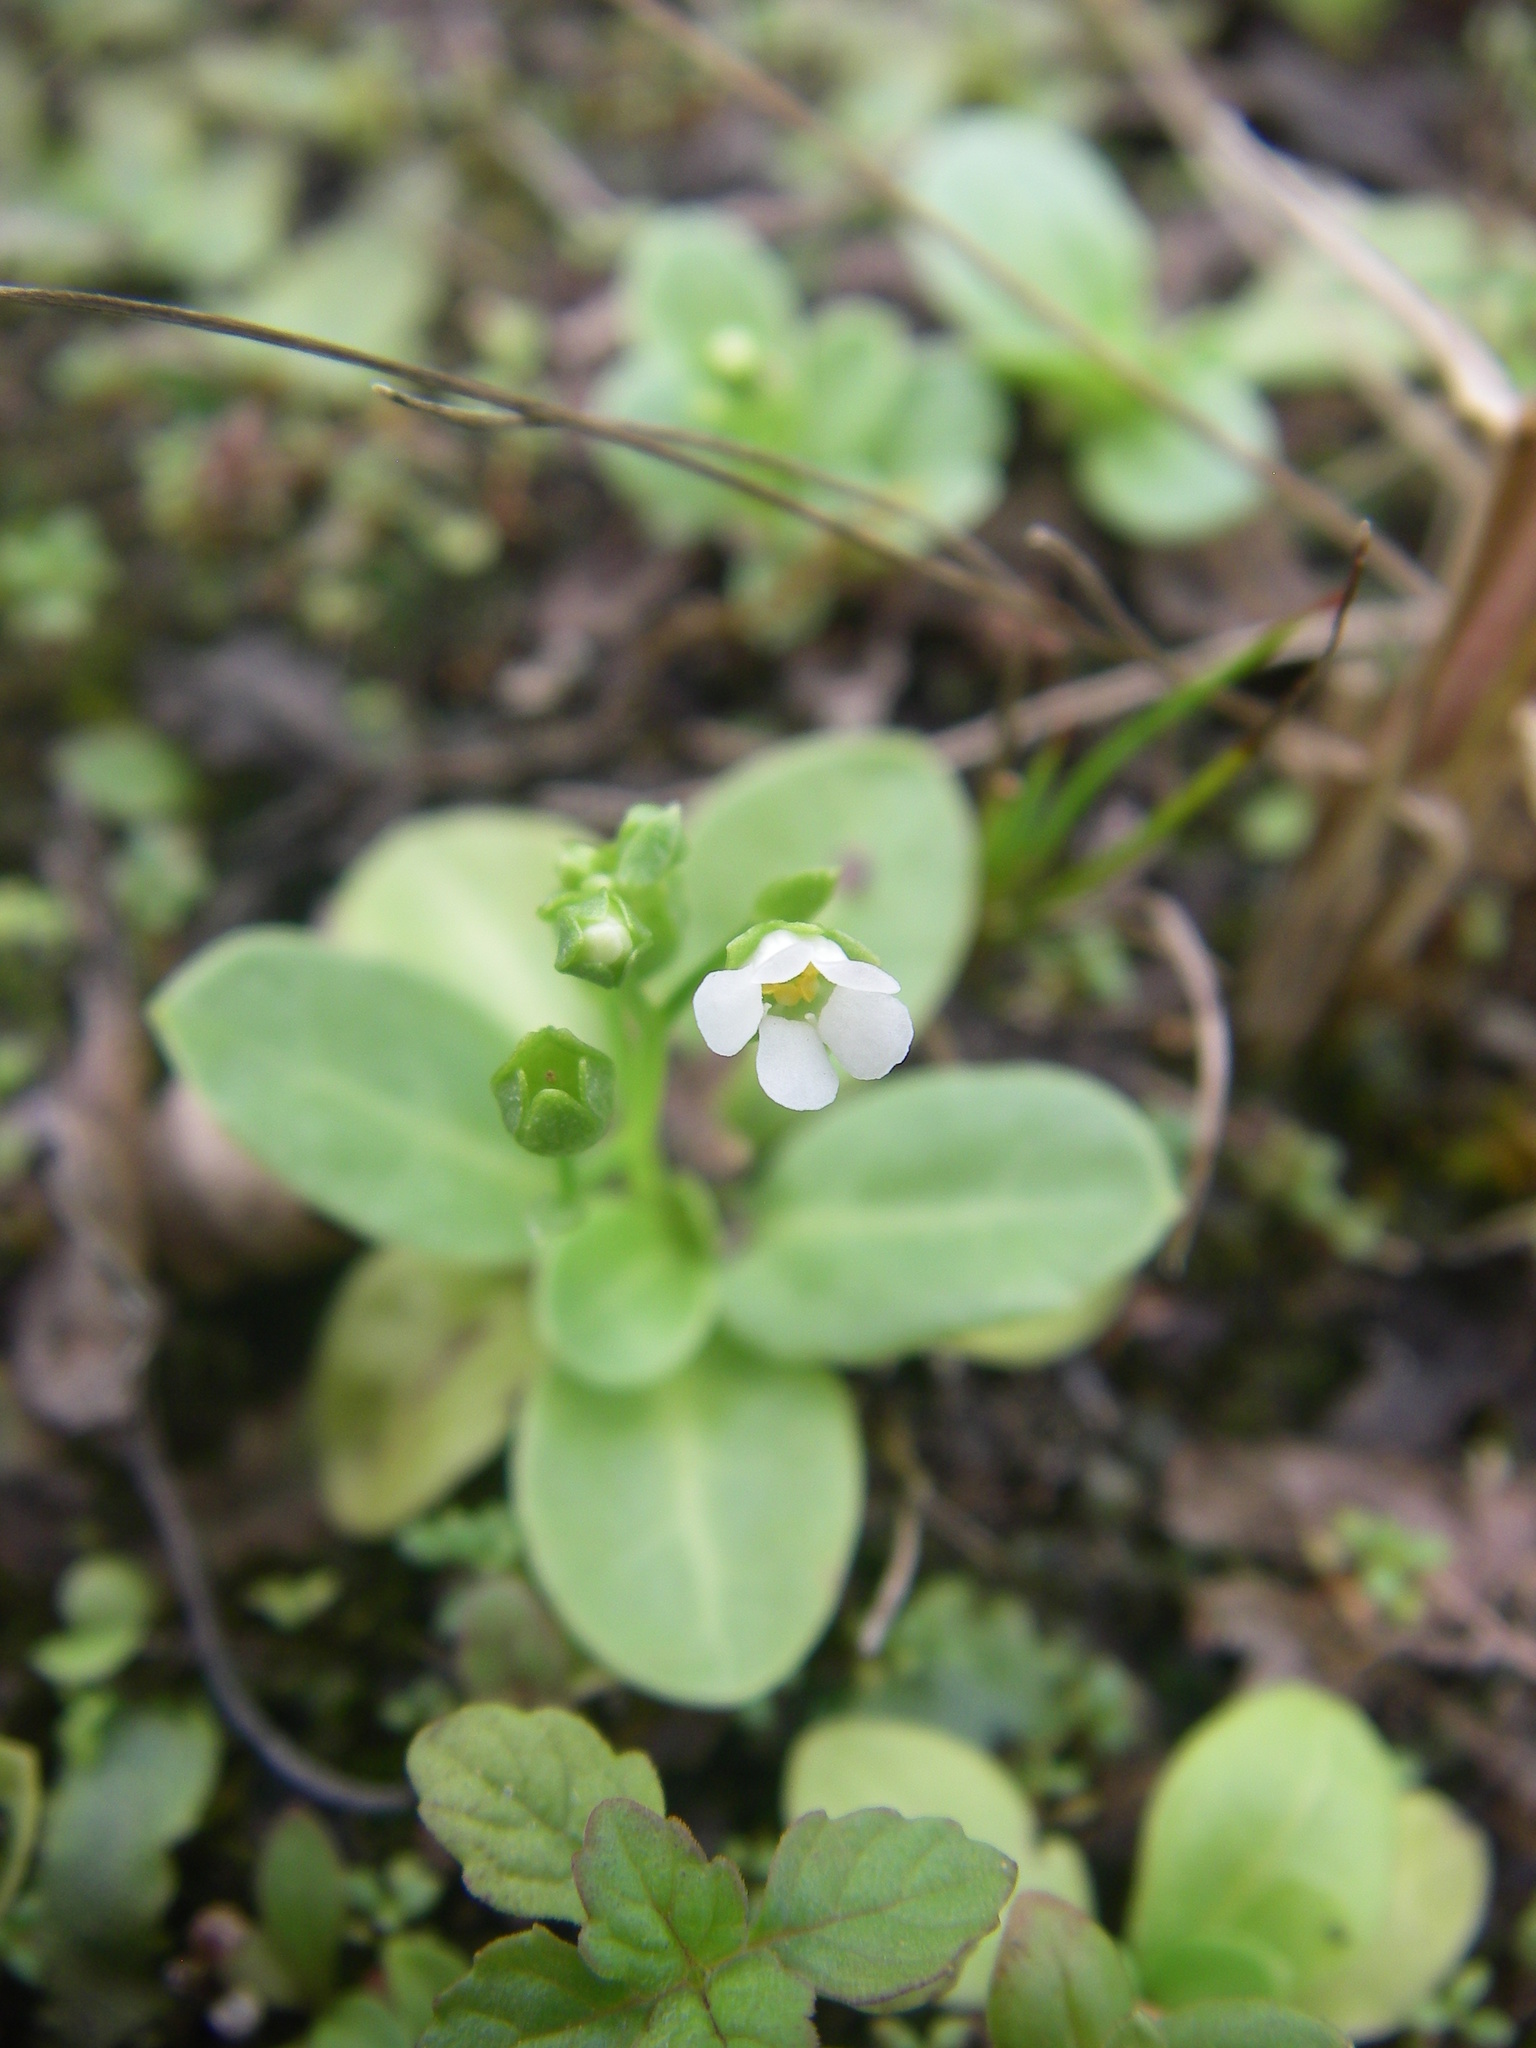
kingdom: Plantae
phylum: Tracheophyta
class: Magnoliopsida
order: Ericales
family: Primulaceae
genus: Samolus
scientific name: Samolus valerandi
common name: Brookweed
